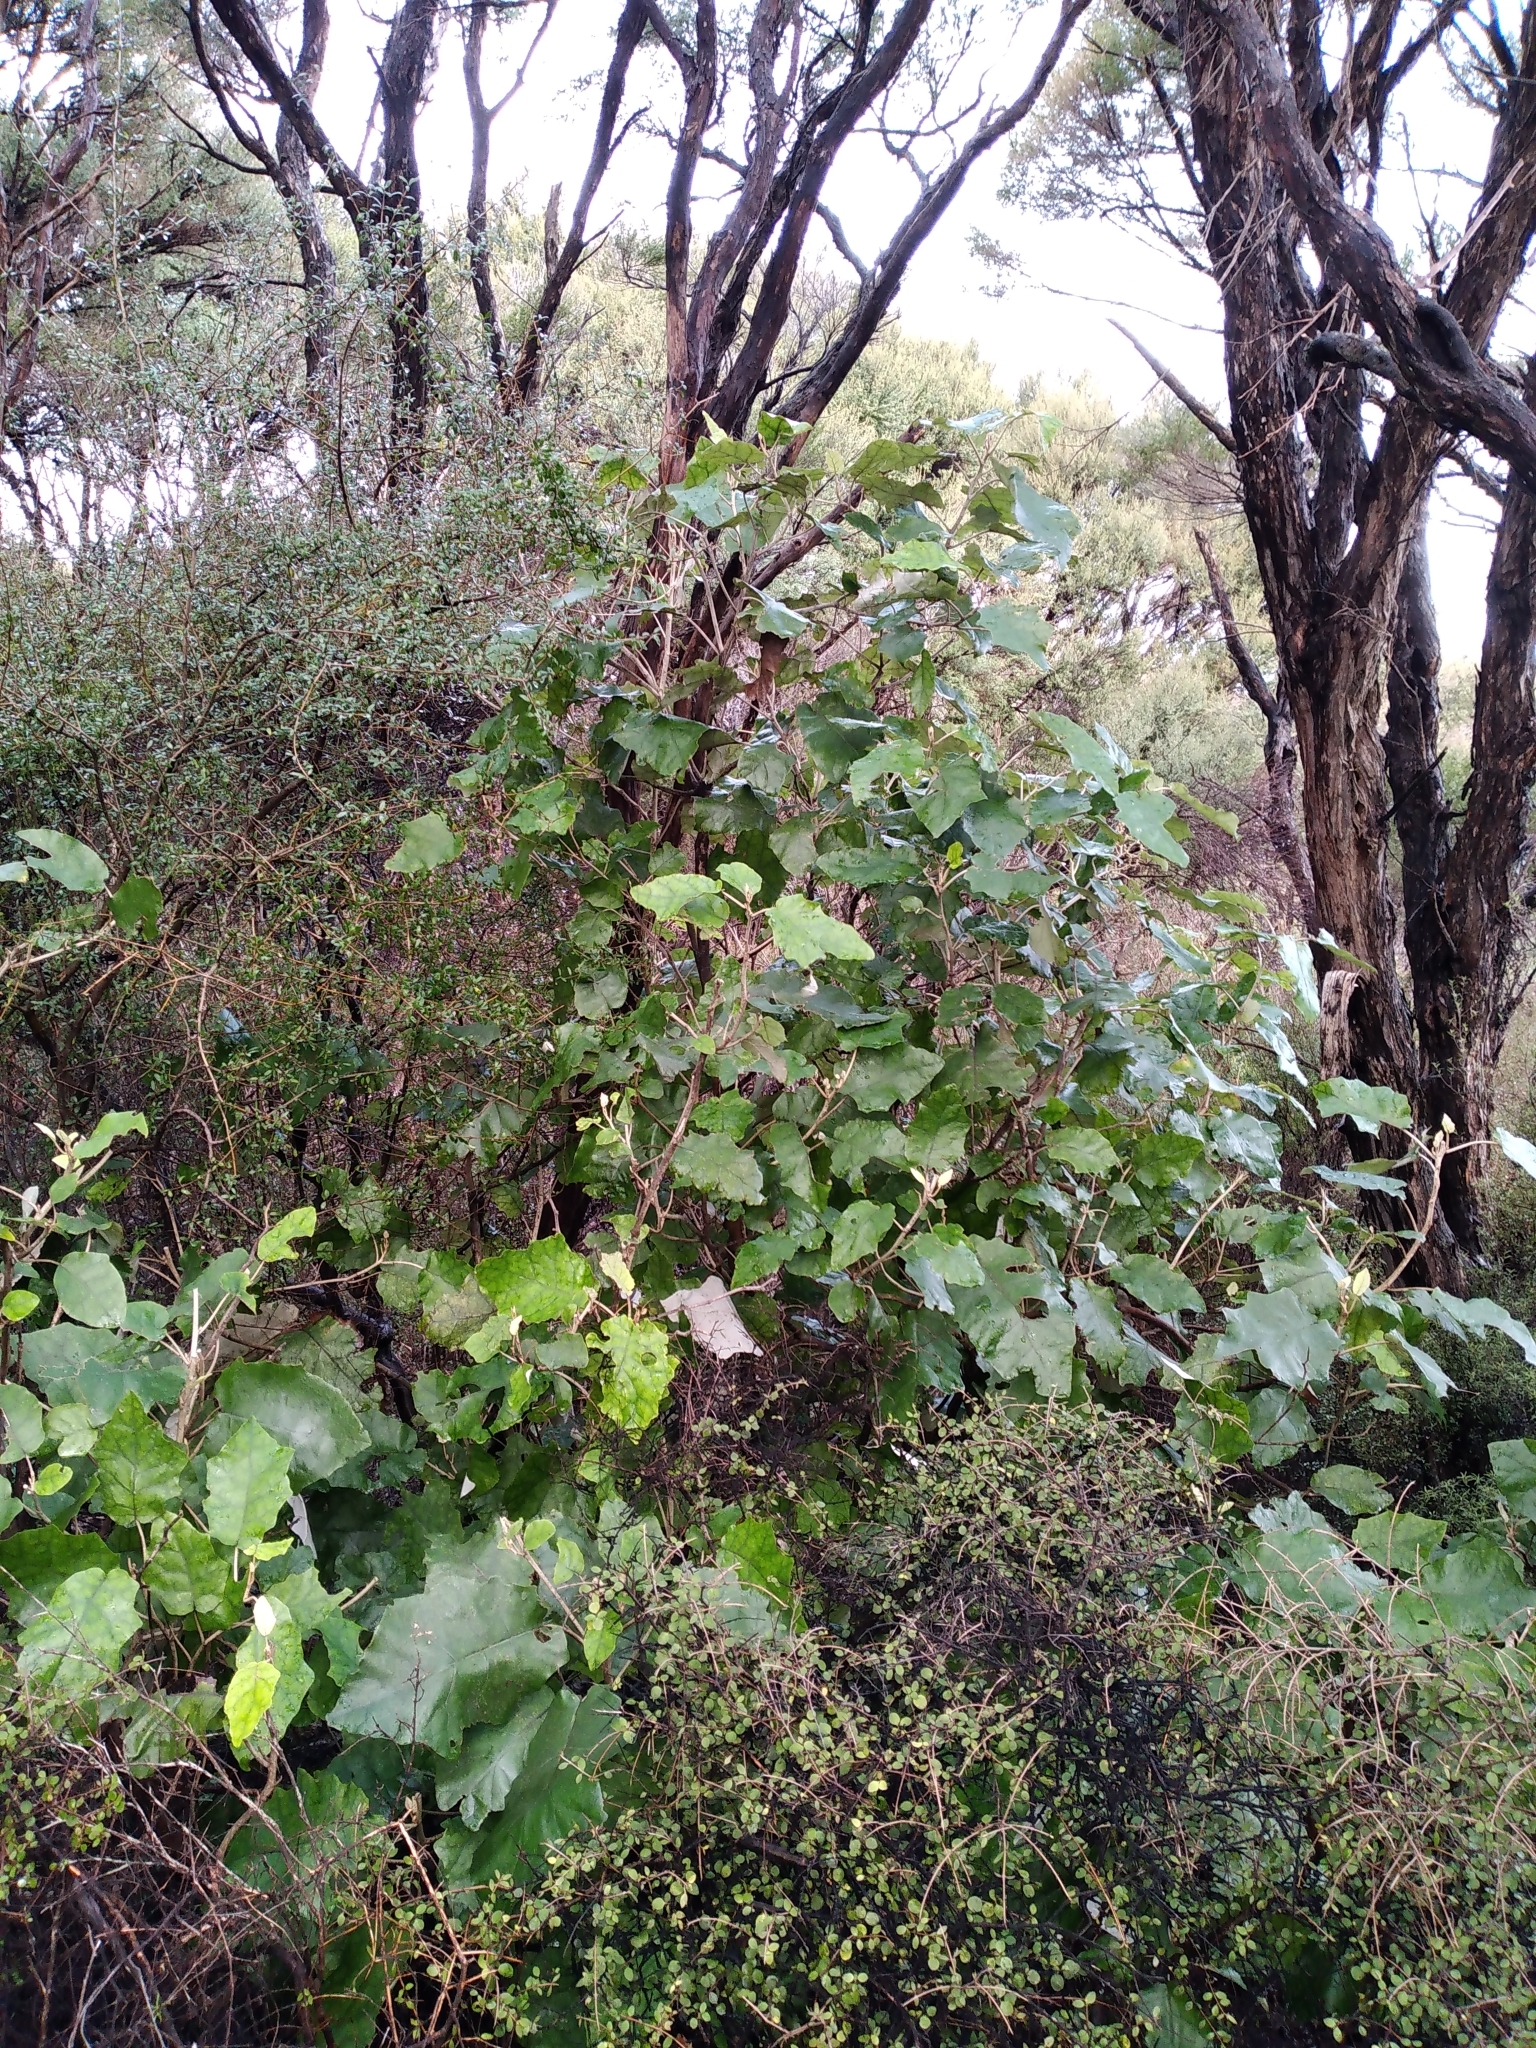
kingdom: Plantae
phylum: Tracheophyta
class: Magnoliopsida
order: Asterales
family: Asteraceae
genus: Brachyglottis
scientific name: Brachyglottis repanda
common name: Hedge ragwort
